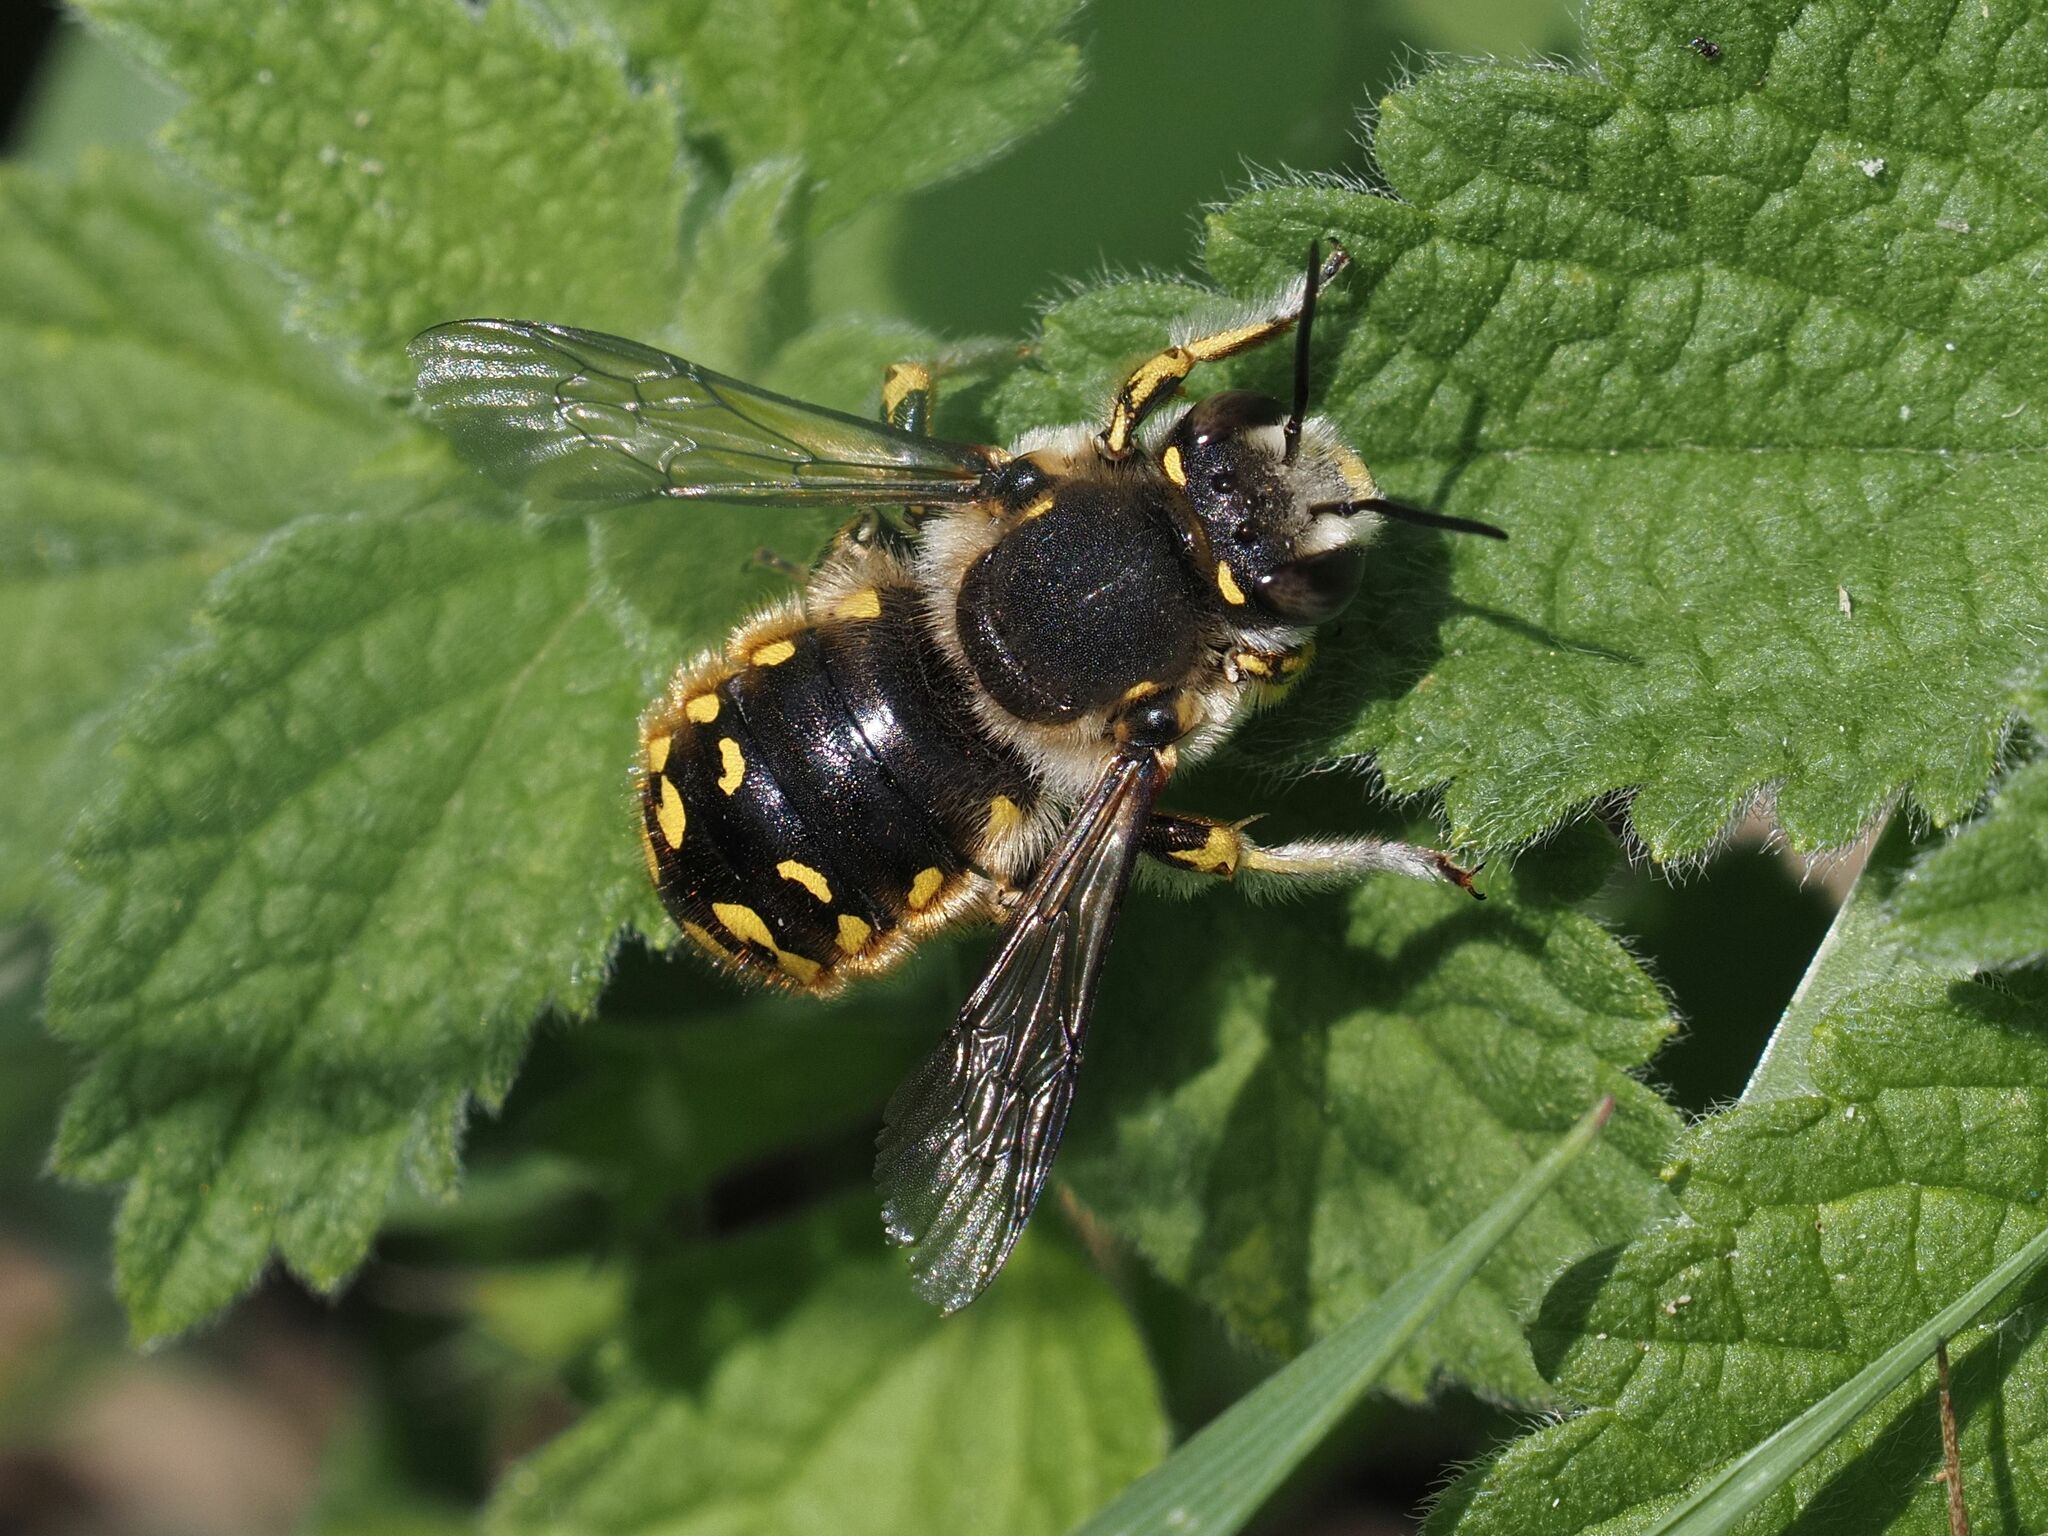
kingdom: Animalia
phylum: Arthropoda
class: Insecta
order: Hymenoptera
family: Megachilidae
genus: Anthidium
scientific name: Anthidium manicatum
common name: Wool carder bee
